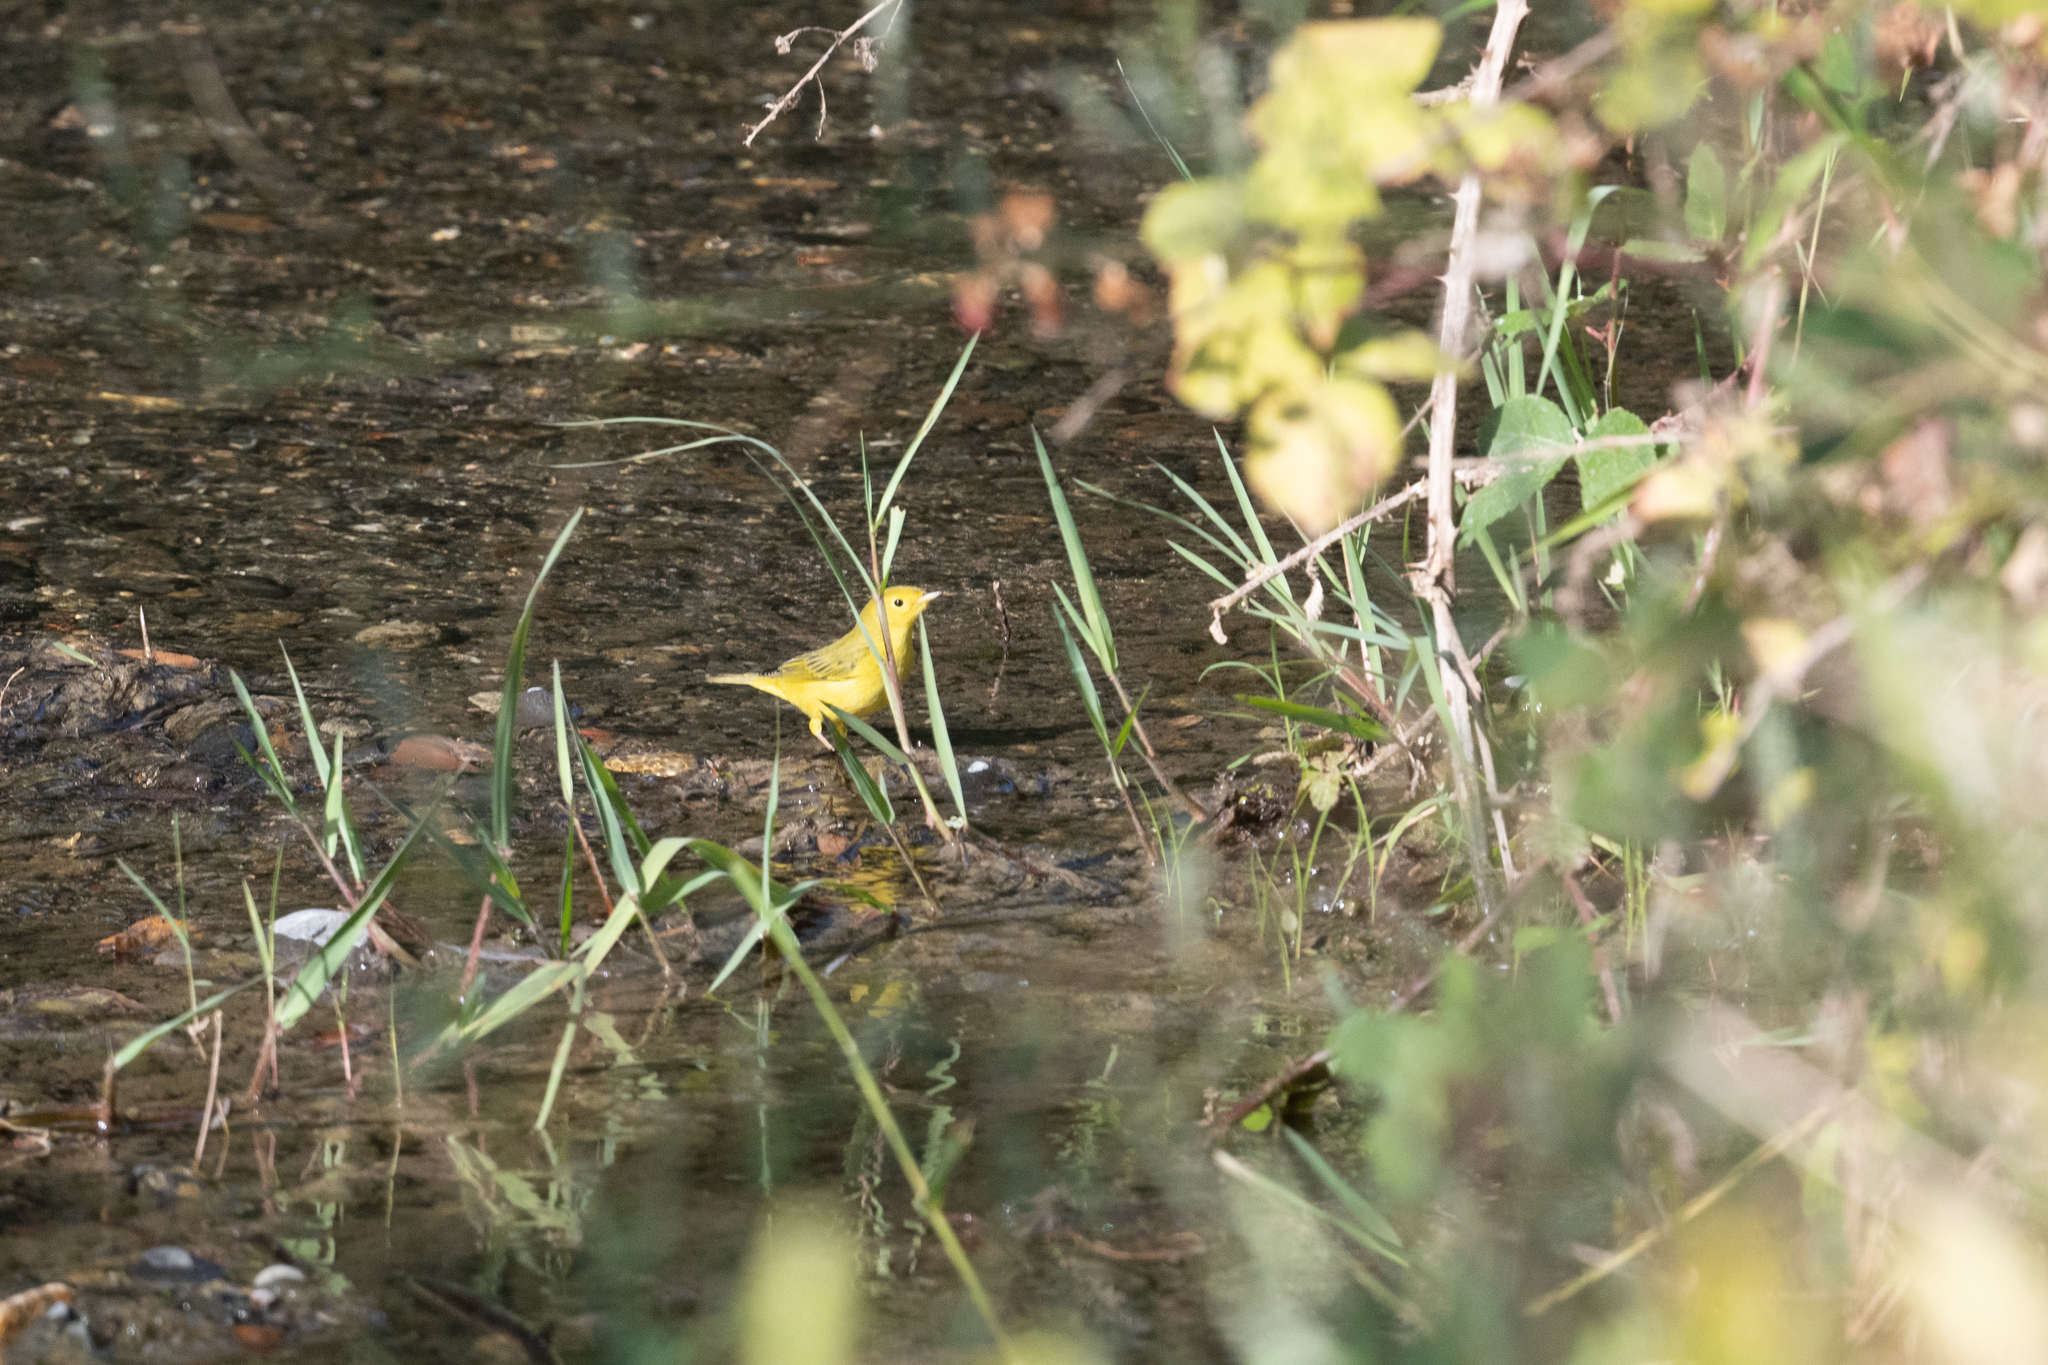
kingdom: Animalia
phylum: Chordata
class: Aves
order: Passeriformes
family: Parulidae
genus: Setophaga
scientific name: Setophaga petechia
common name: Yellow warbler
